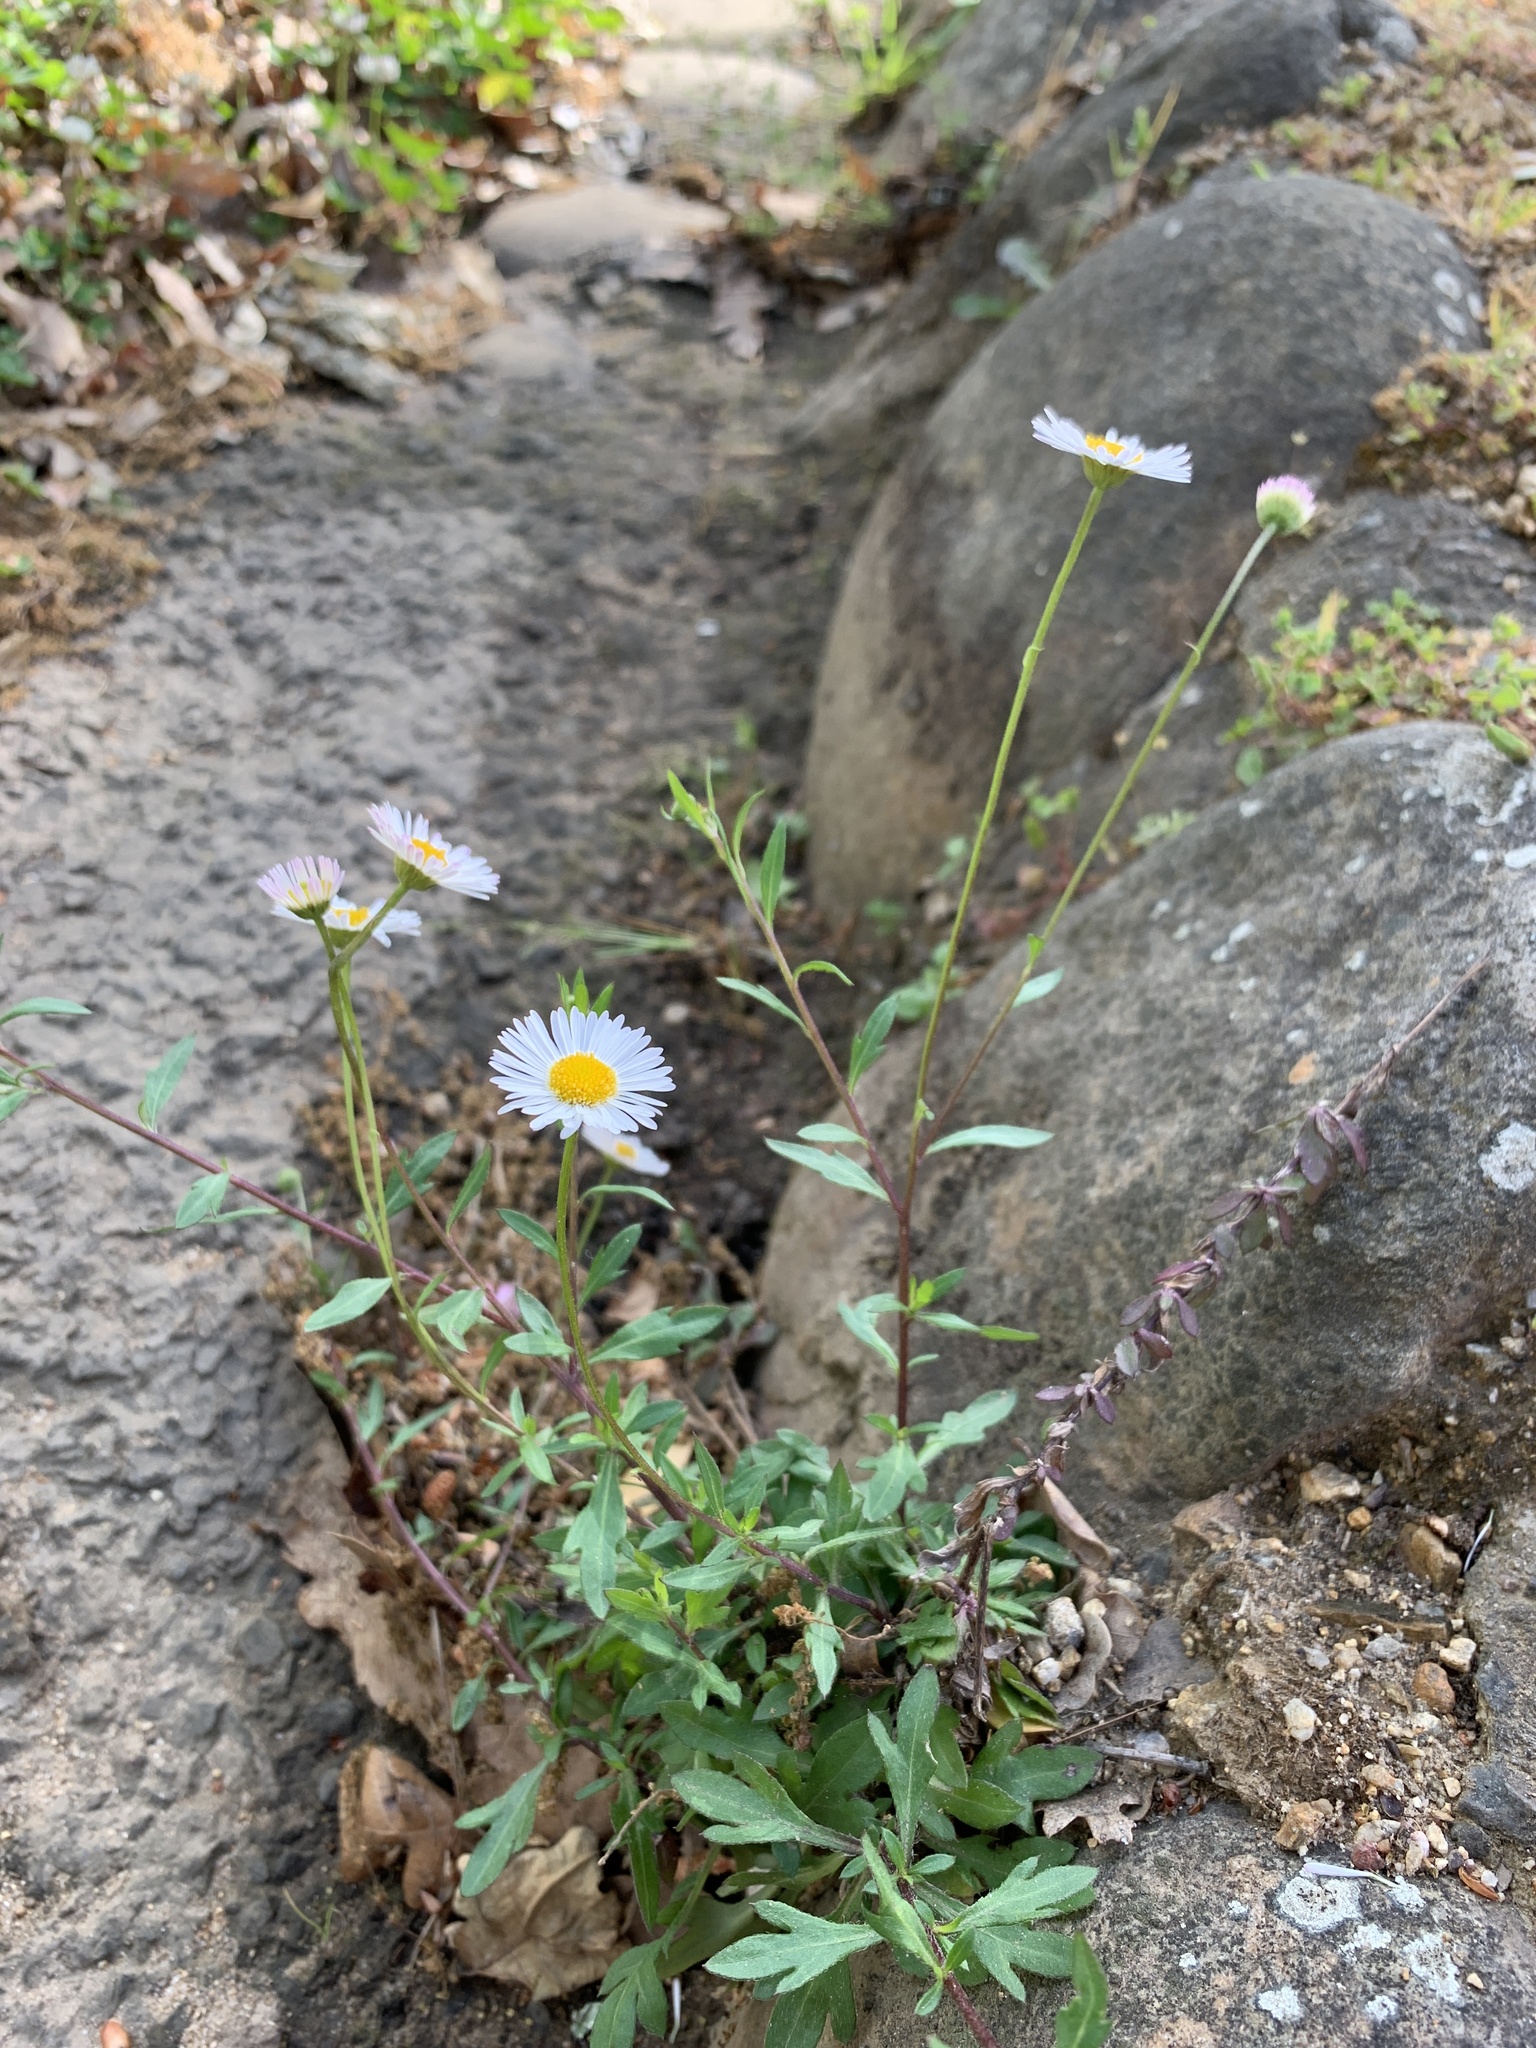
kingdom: Plantae
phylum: Tracheophyta
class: Magnoliopsida
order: Asterales
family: Asteraceae
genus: Erigeron
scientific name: Erigeron karvinskianus
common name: Mexican fleabane
